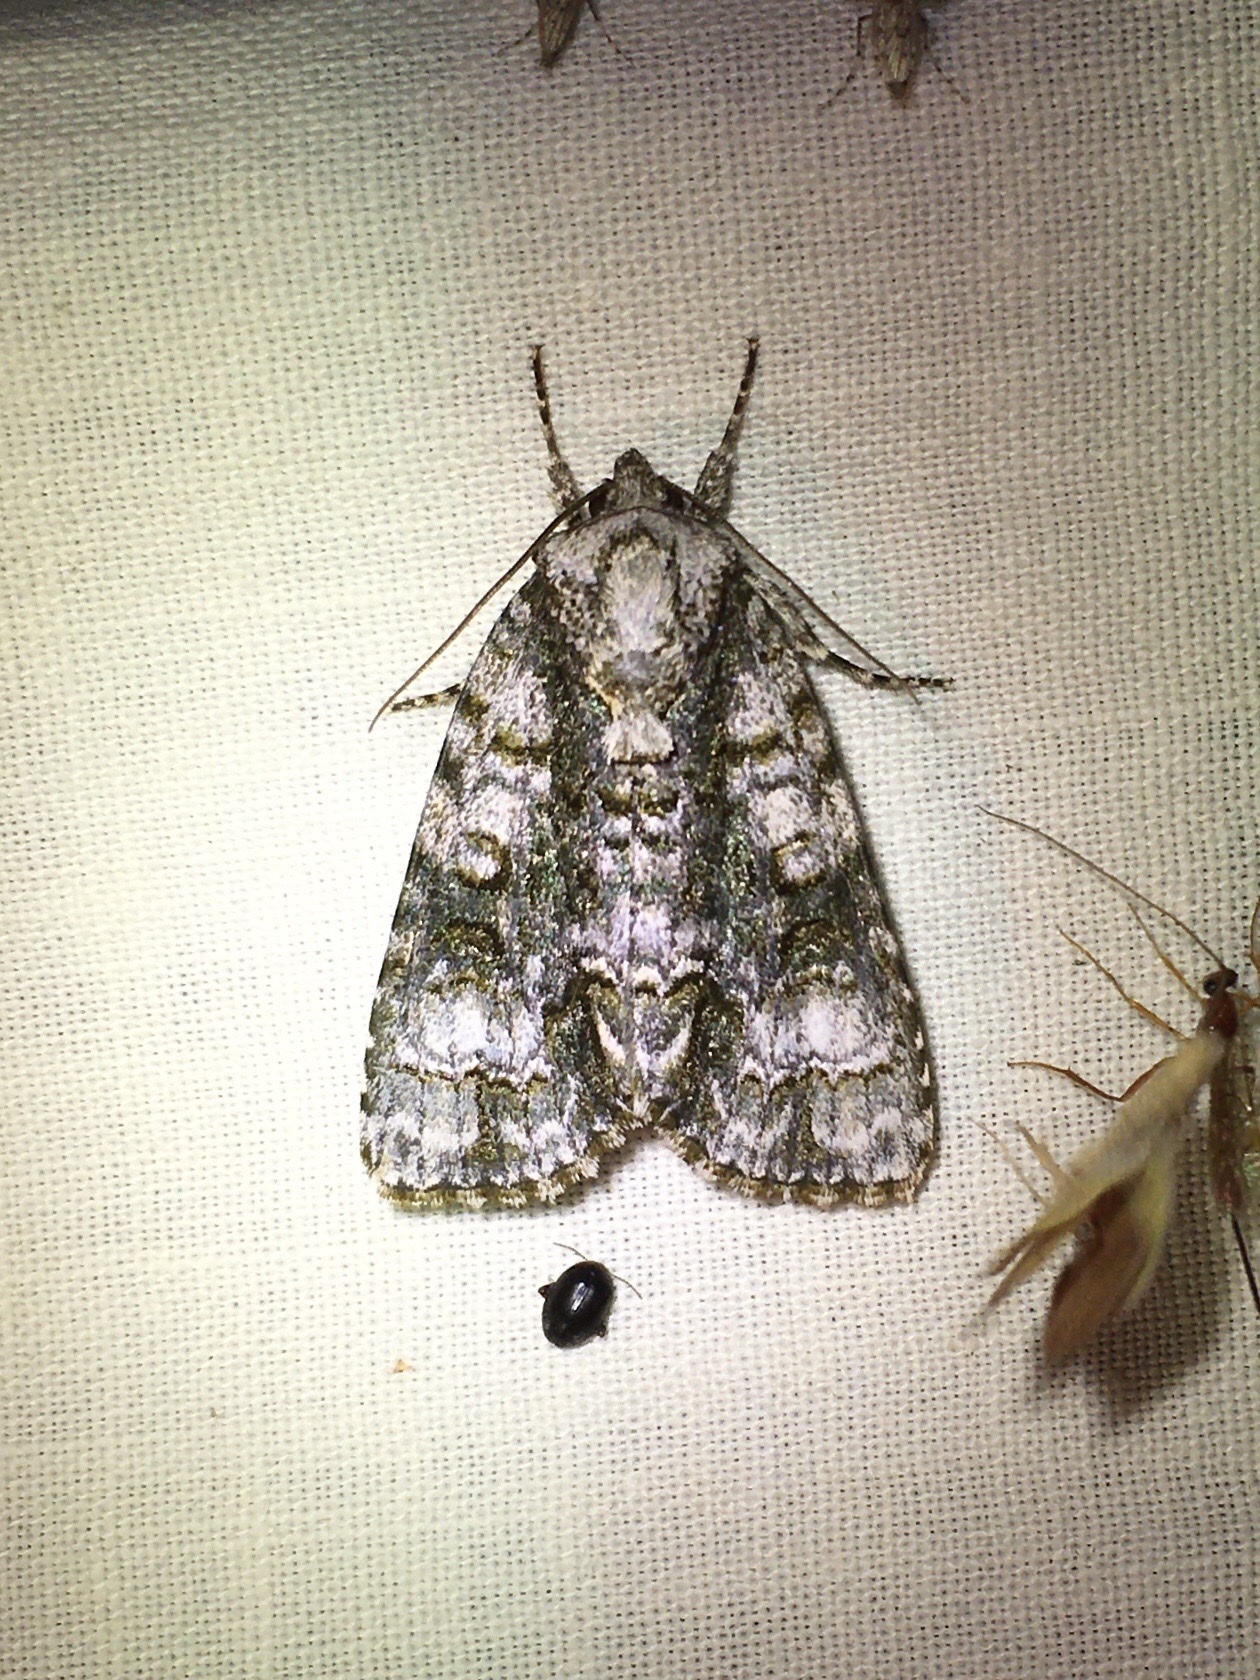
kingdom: Animalia
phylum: Arthropoda
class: Insecta
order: Lepidoptera
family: Noctuidae
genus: Acronicta
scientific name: Acronicta superans
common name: Splendid dagger
